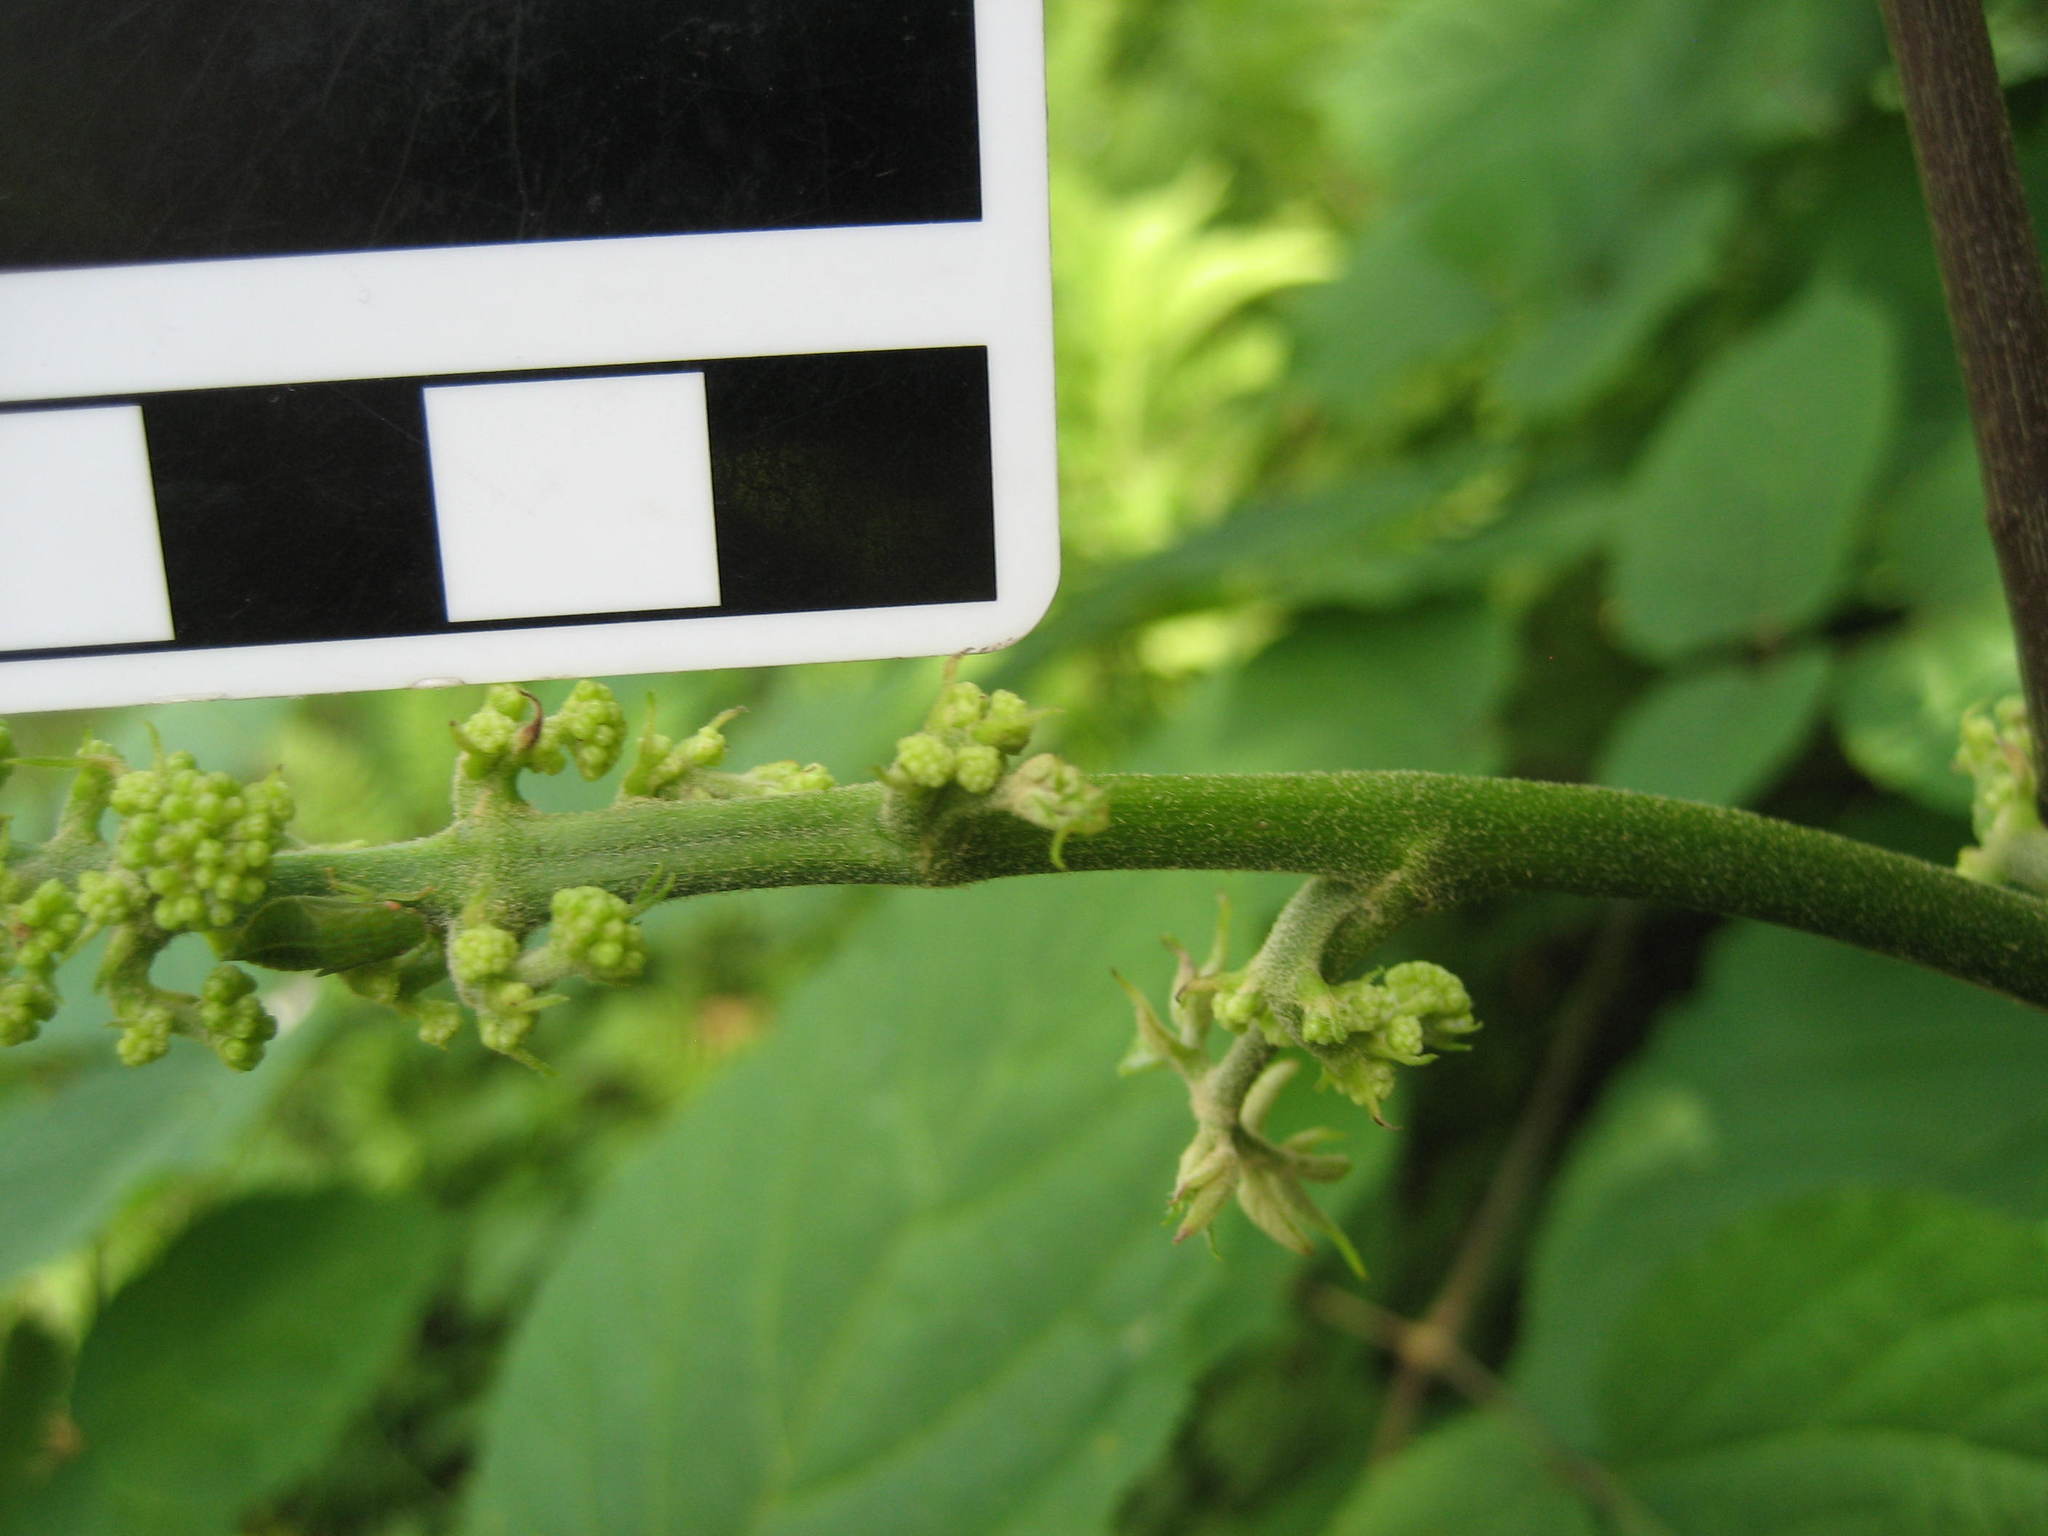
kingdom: Plantae
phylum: Tracheophyta
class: Magnoliopsida
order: Apiales
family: Araliaceae
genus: Aralia
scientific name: Aralia racemosa
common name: American-spikenard
